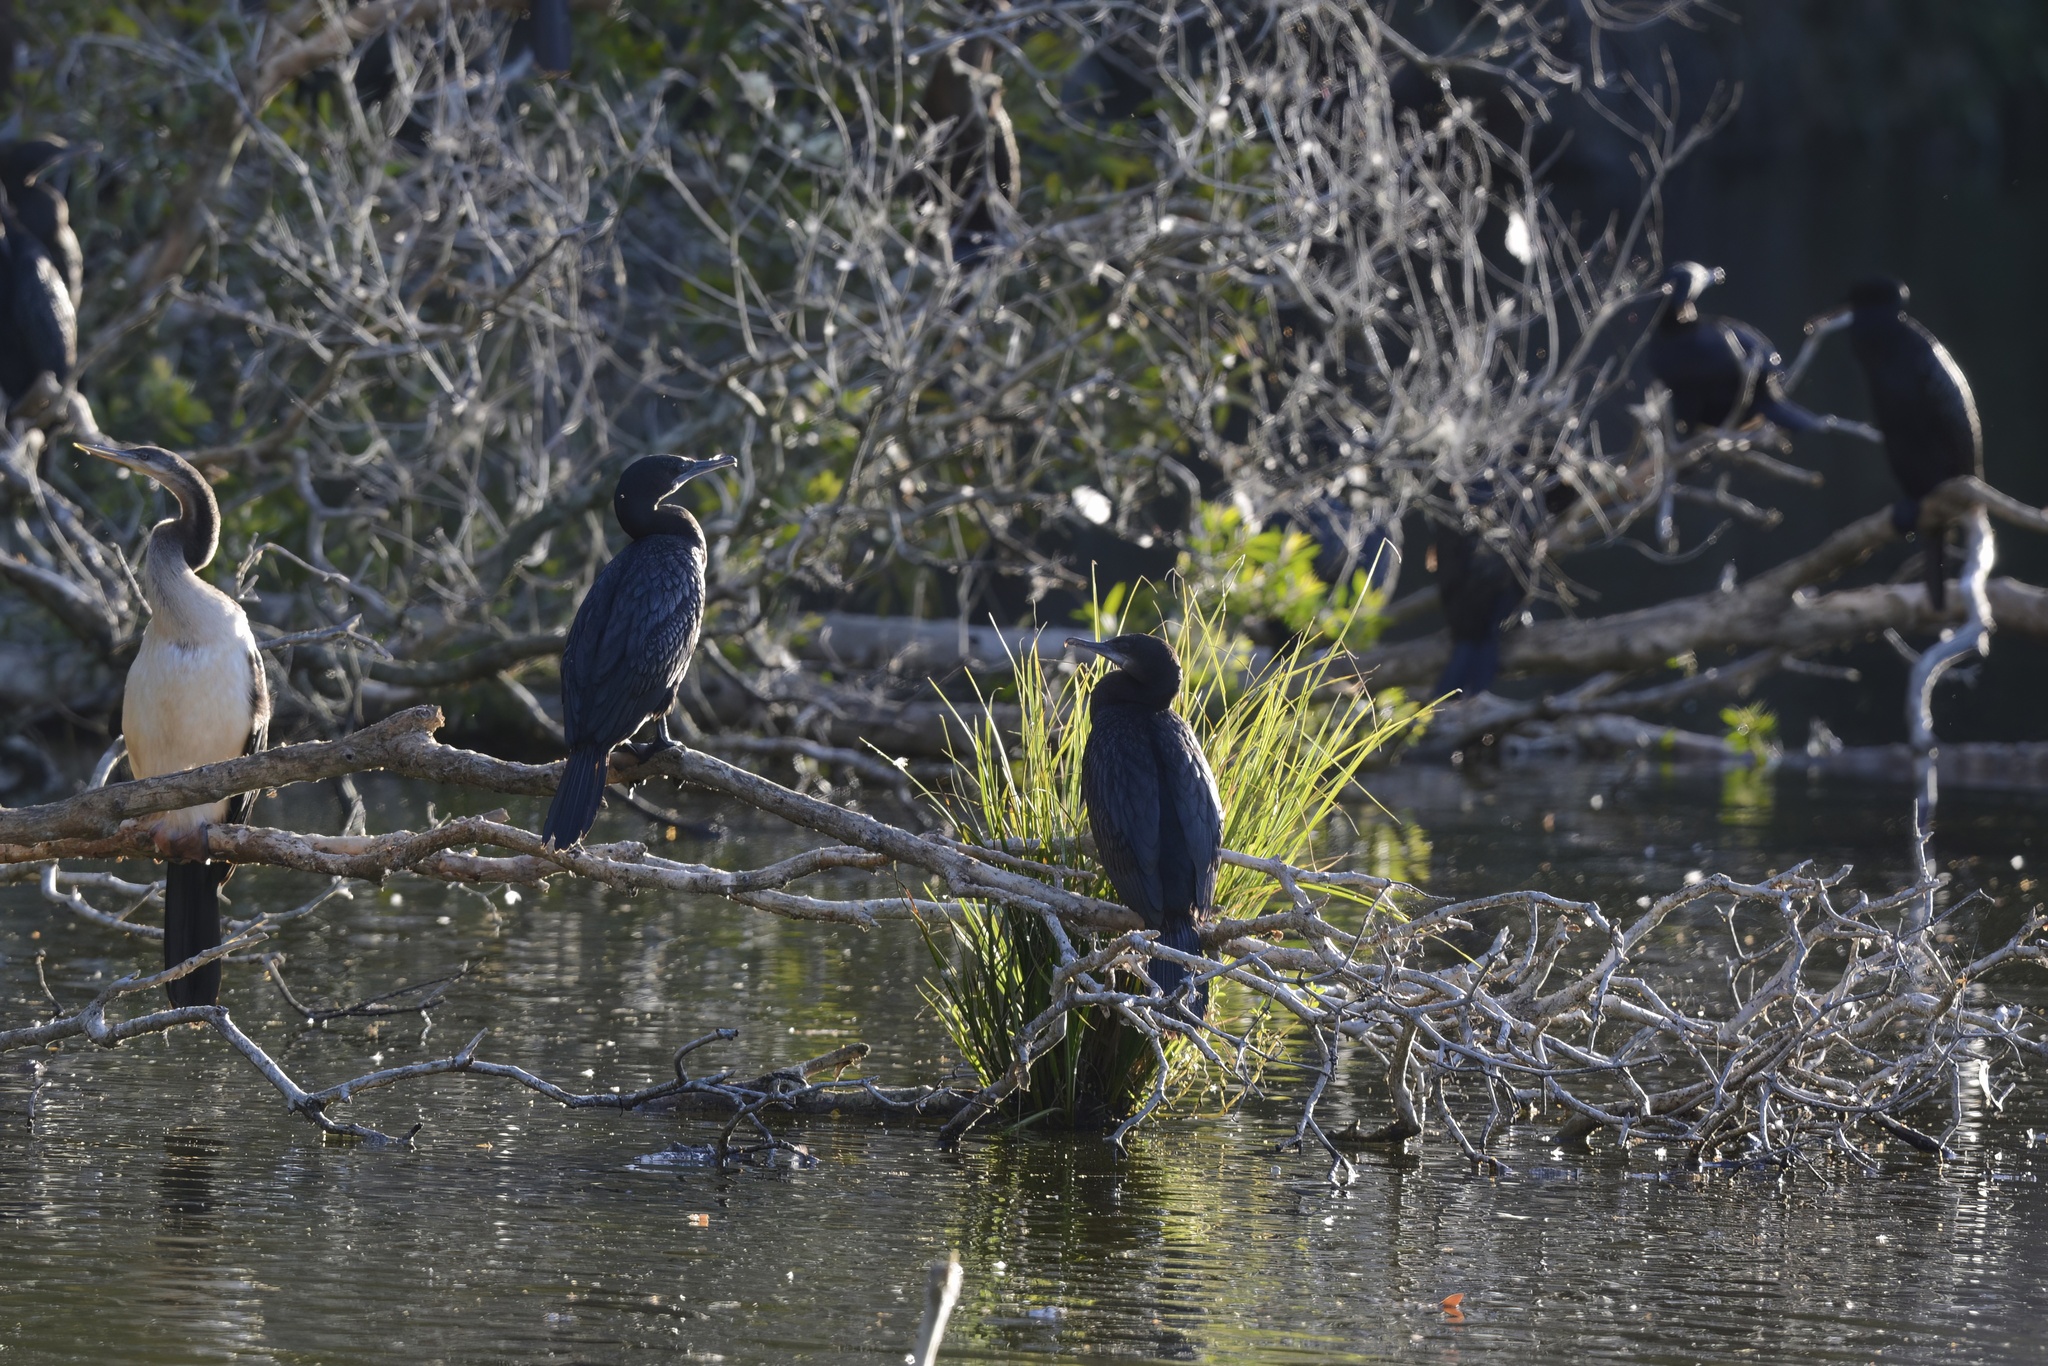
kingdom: Animalia
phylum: Chordata
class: Aves
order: Suliformes
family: Phalacrocoracidae
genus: Phalacrocorax
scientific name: Phalacrocorax sulcirostris
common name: Little black cormorant
